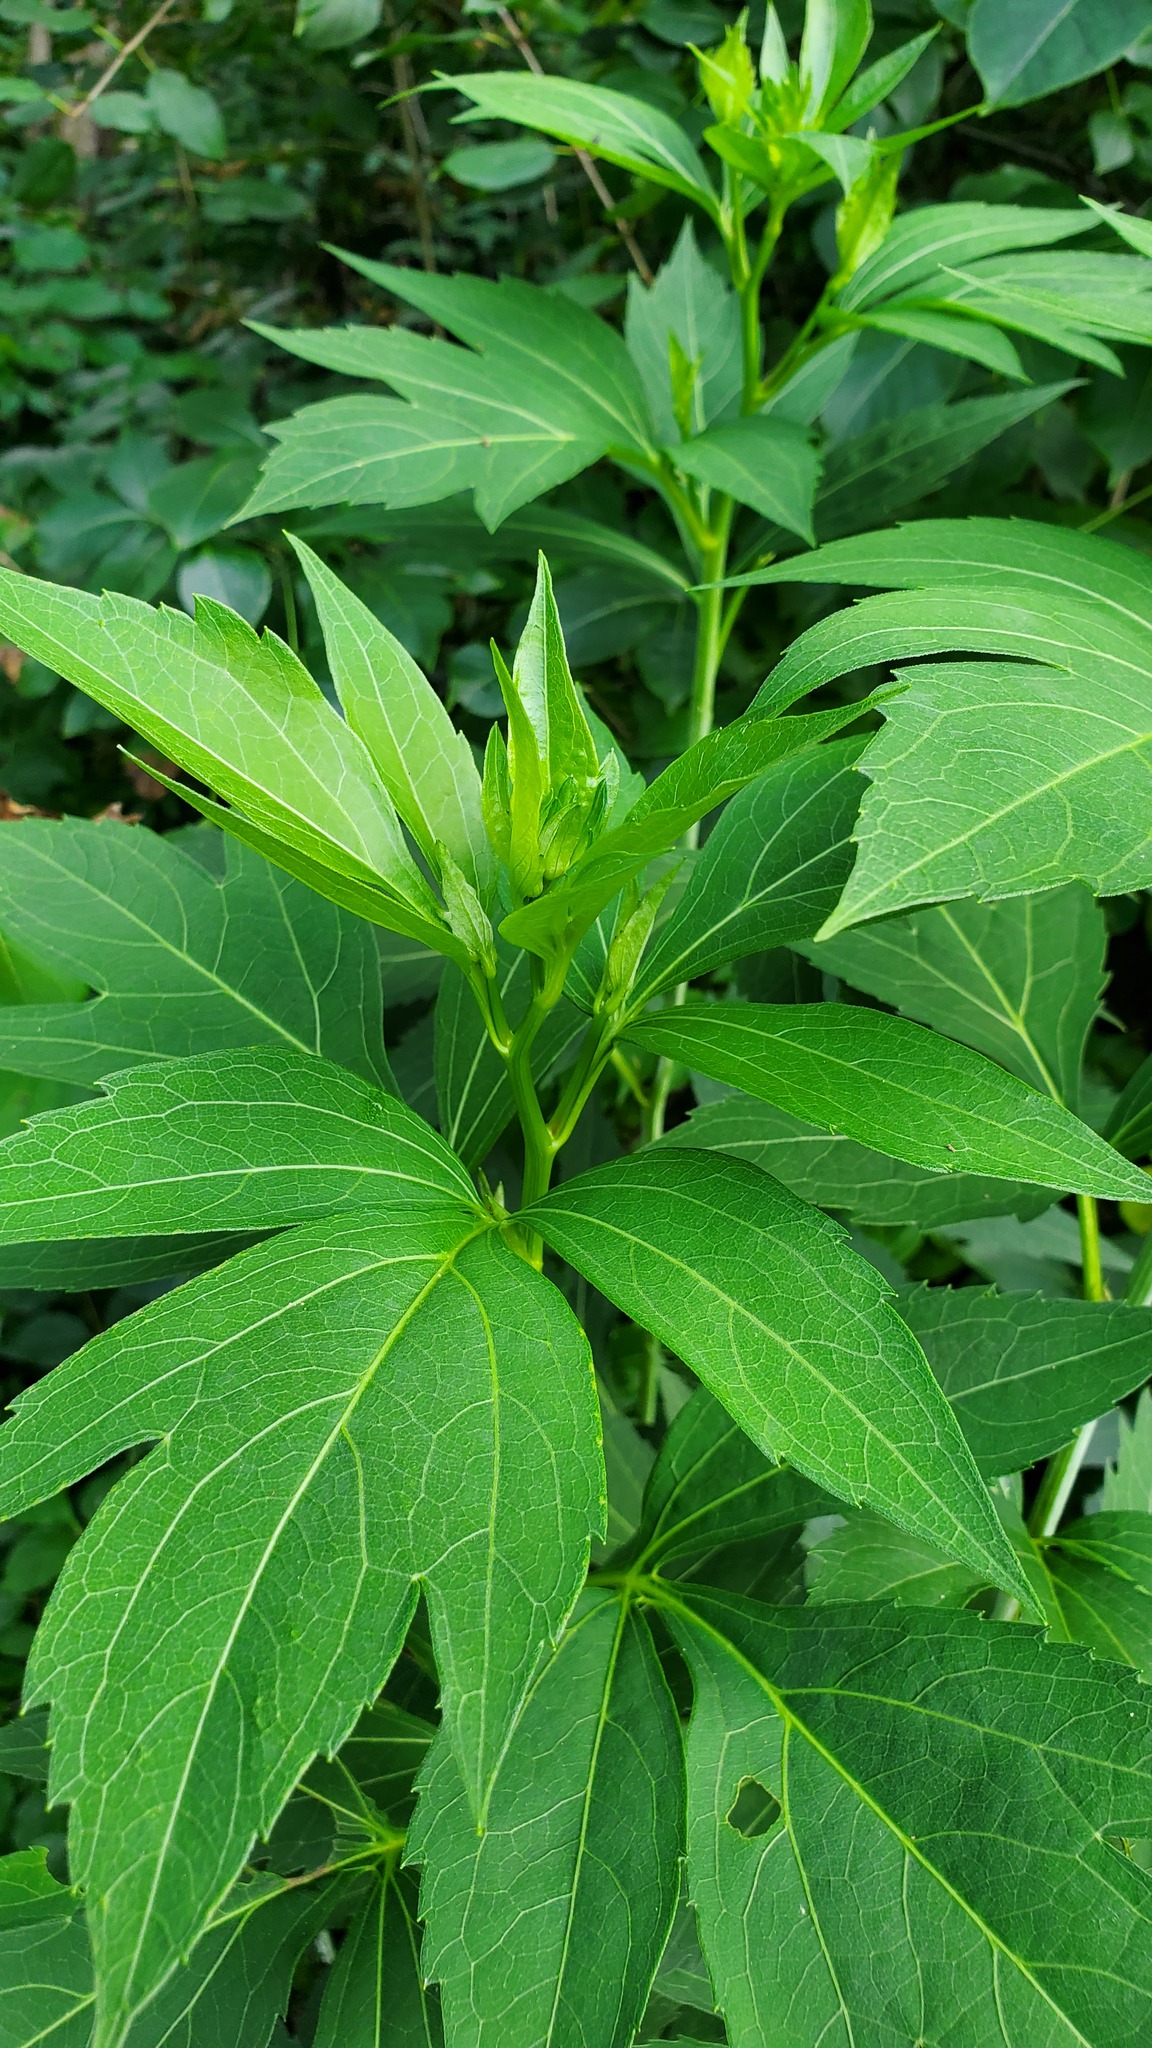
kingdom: Plantae
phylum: Tracheophyta
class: Magnoliopsida
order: Asterales
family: Asteraceae
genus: Rudbeckia
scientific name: Rudbeckia laciniata
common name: Coneflower
